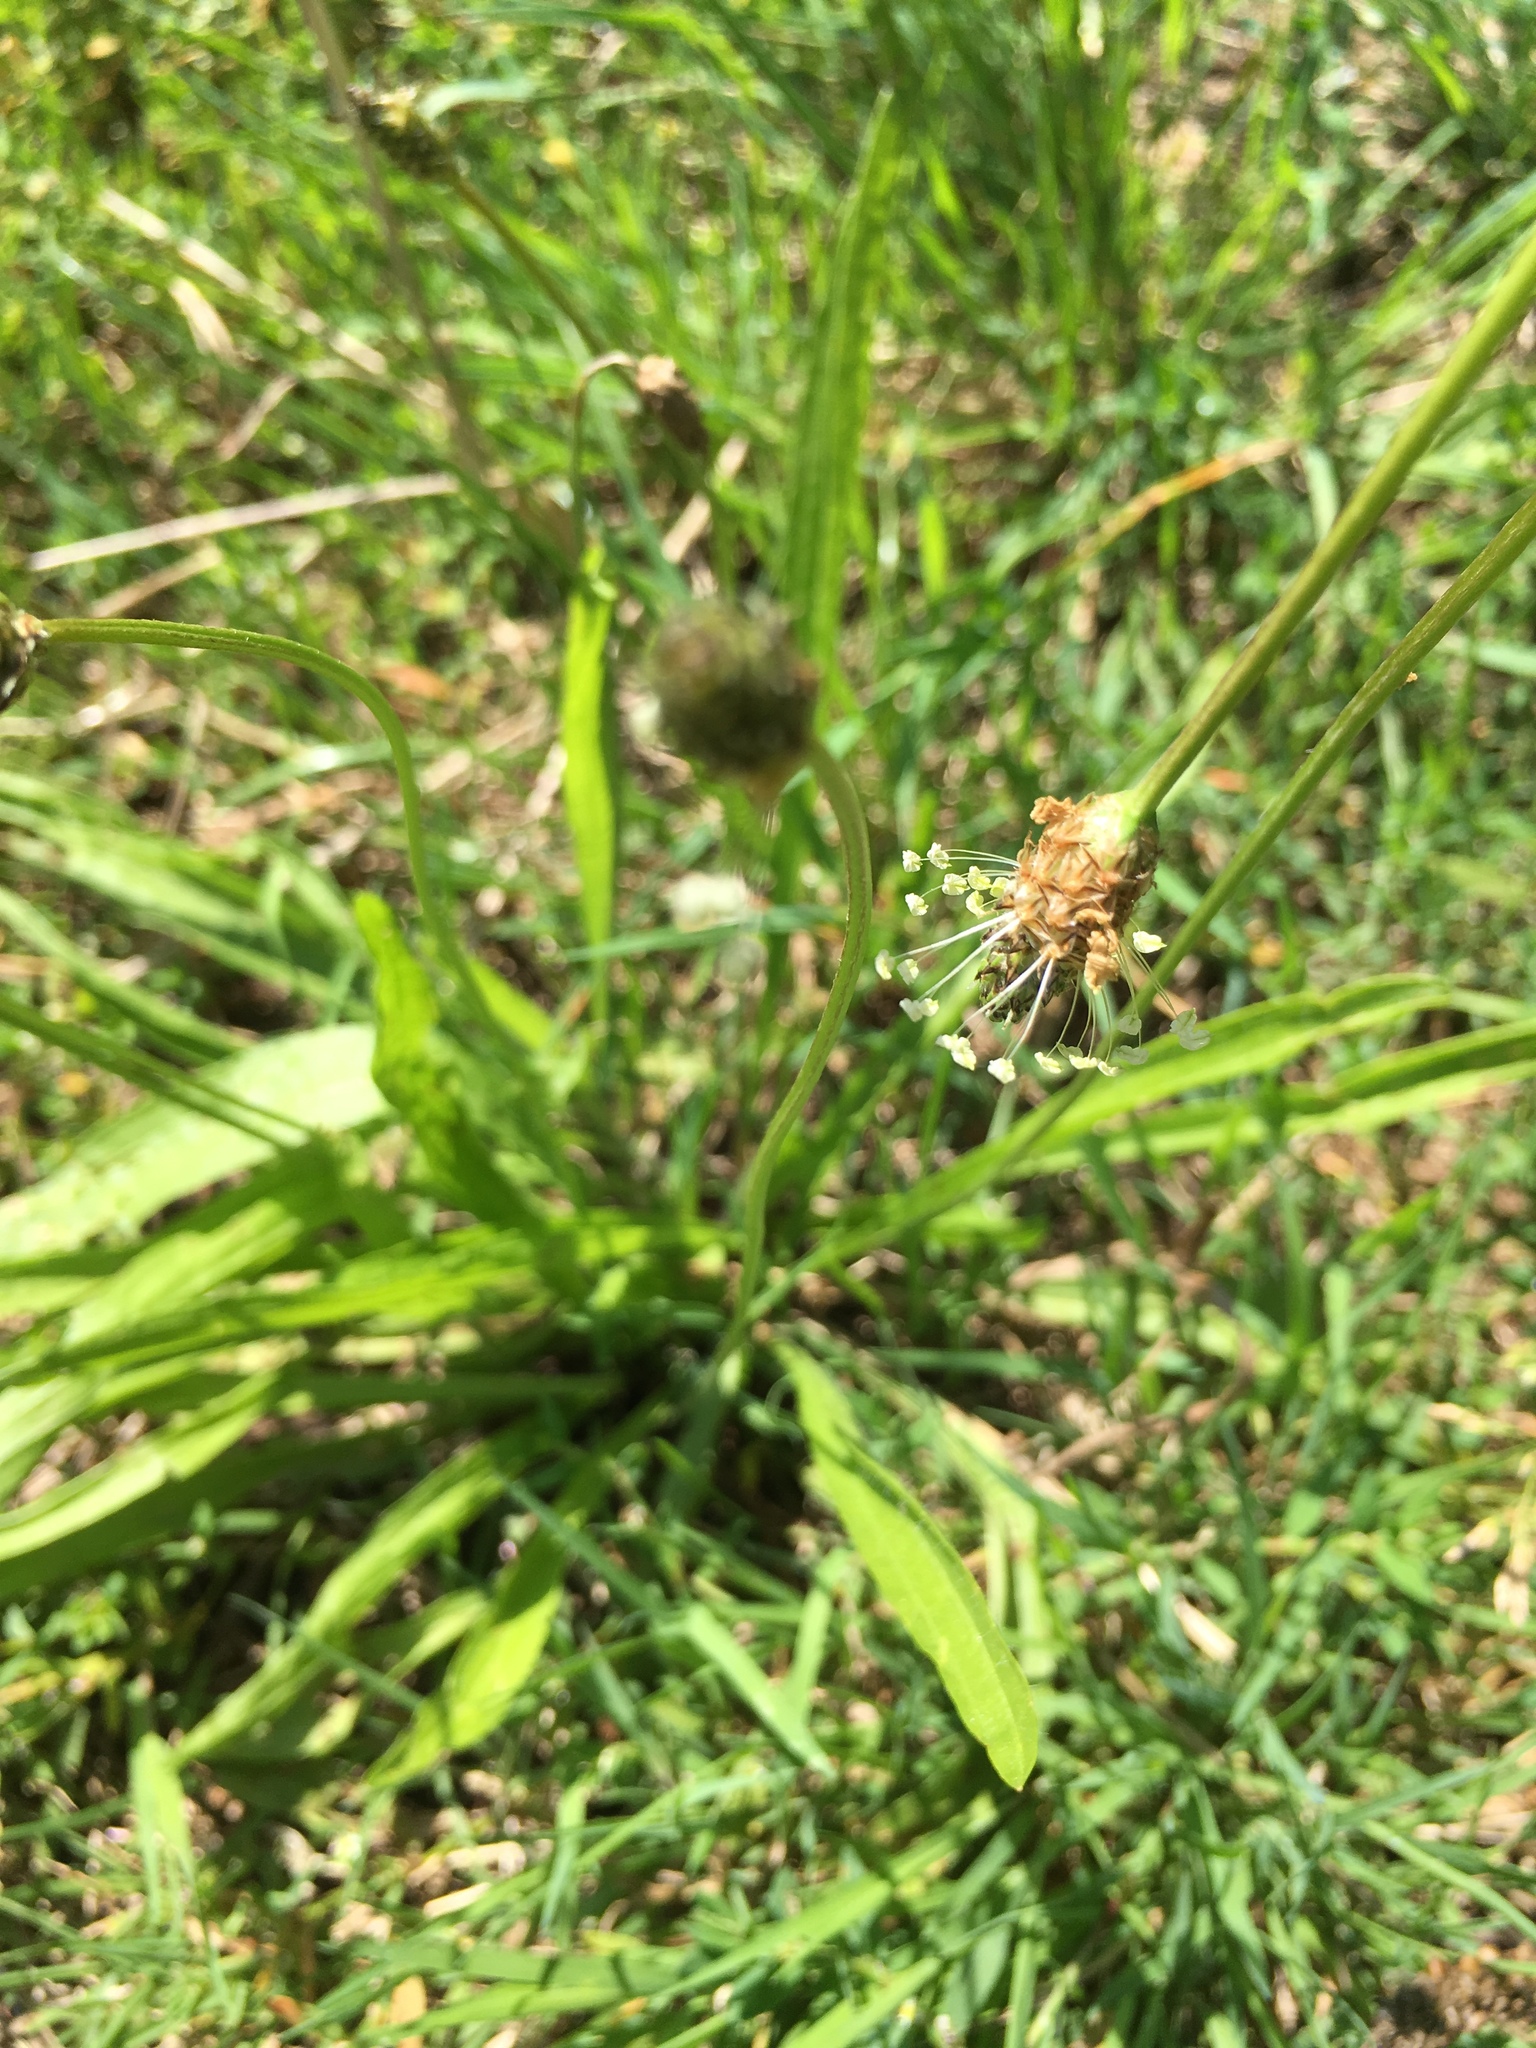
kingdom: Plantae
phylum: Tracheophyta
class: Magnoliopsida
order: Lamiales
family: Plantaginaceae
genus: Plantago
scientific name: Plantago lanceolata
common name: Ribwort plantain
